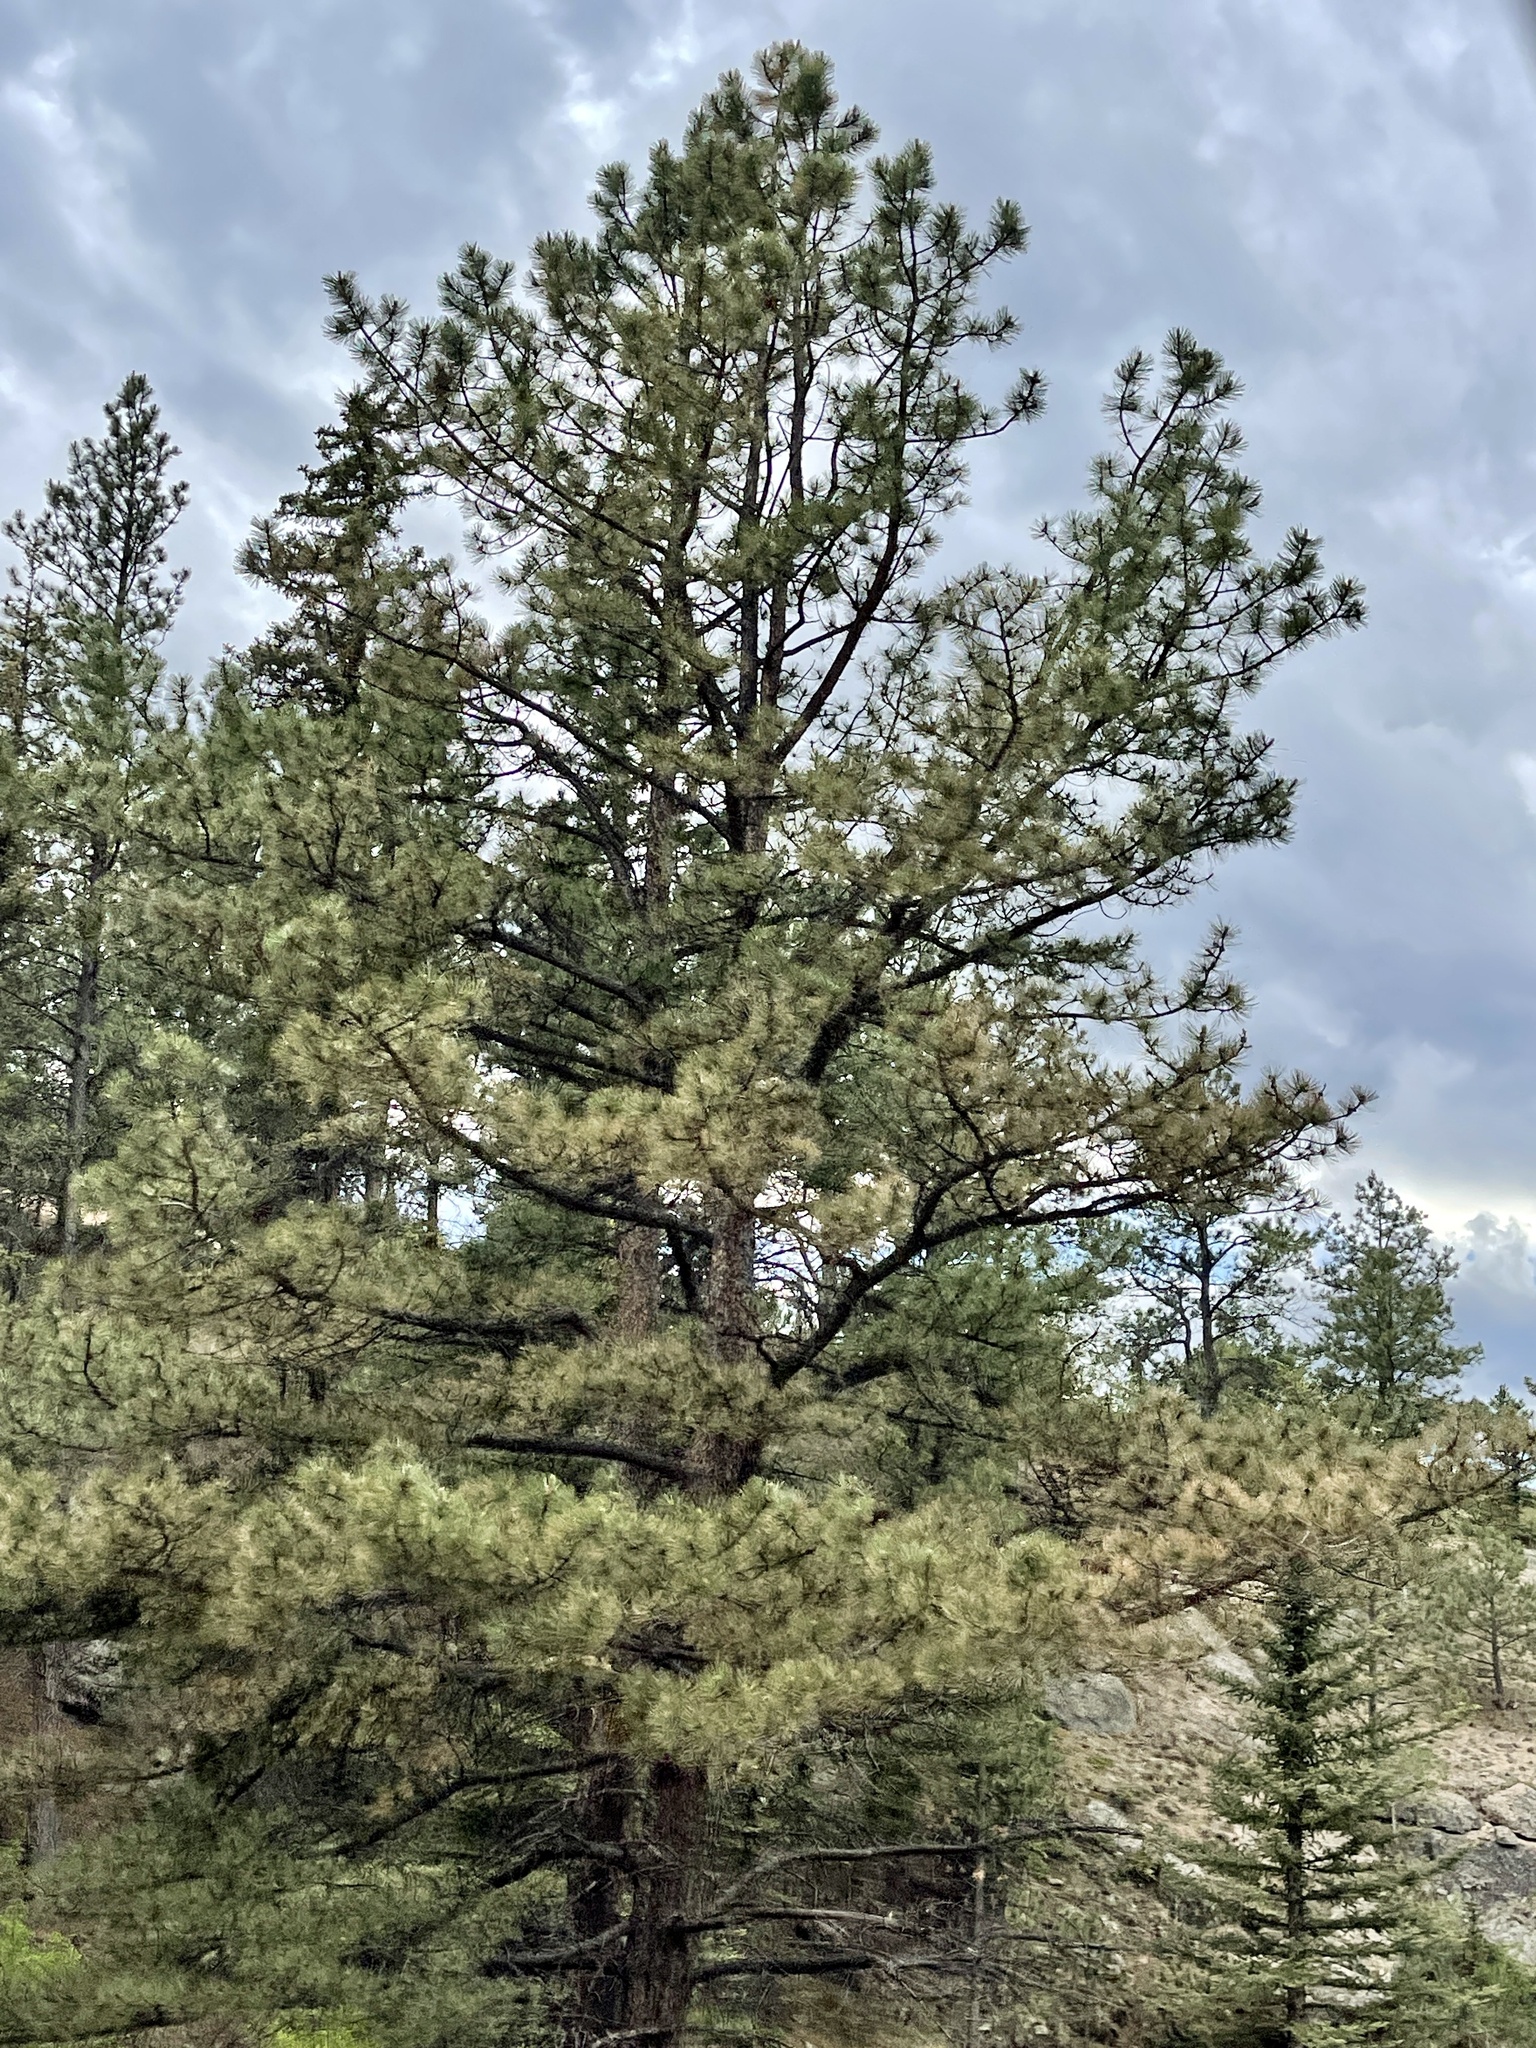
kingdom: Plantae
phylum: Tracheophyta
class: Pinopsida
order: Pinales
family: Pinaceae
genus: Pinus
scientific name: Pinus ponderosa
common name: Western yellow-pine
